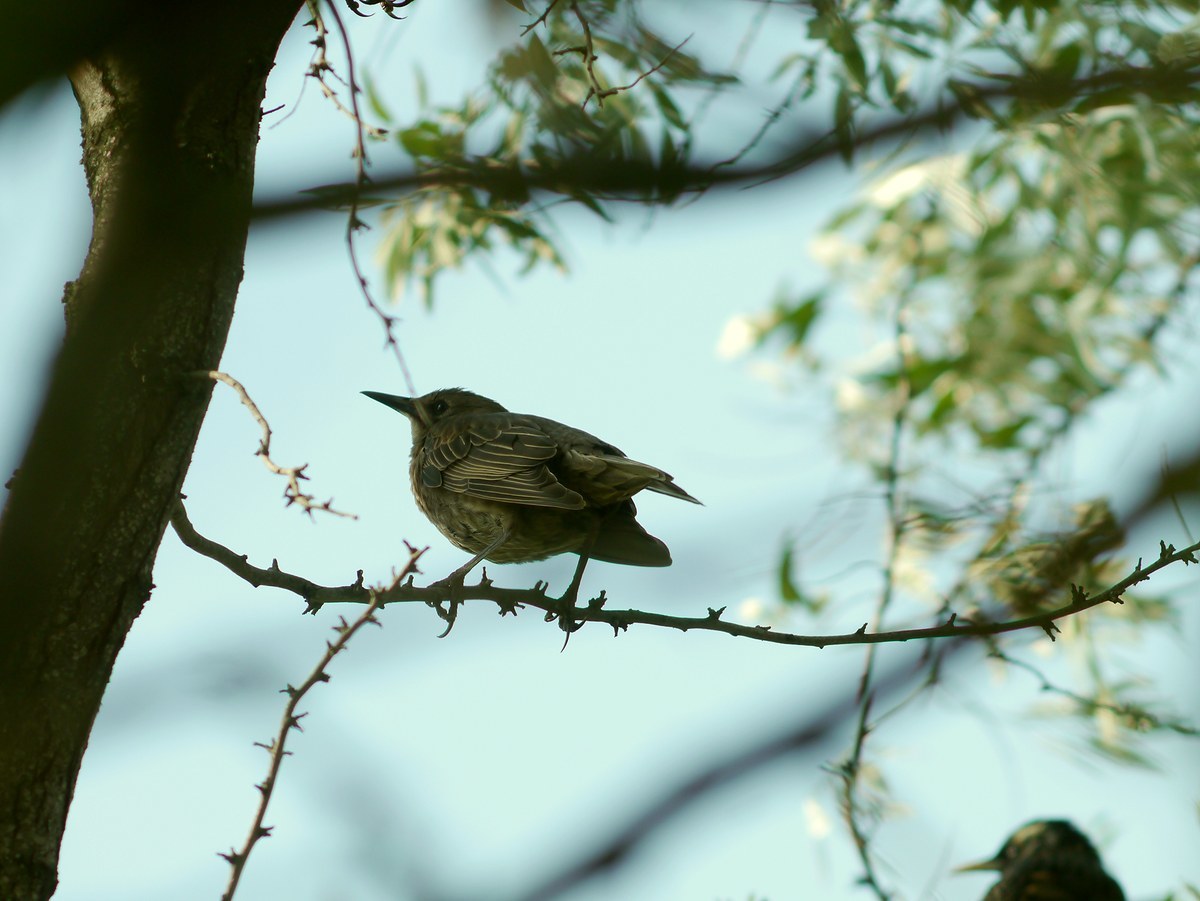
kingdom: Animalia
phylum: Chordata
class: Aves
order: Passeriformes
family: Sturnidae
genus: Sturnus
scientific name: Sturnus vulgaris
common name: Common starling
